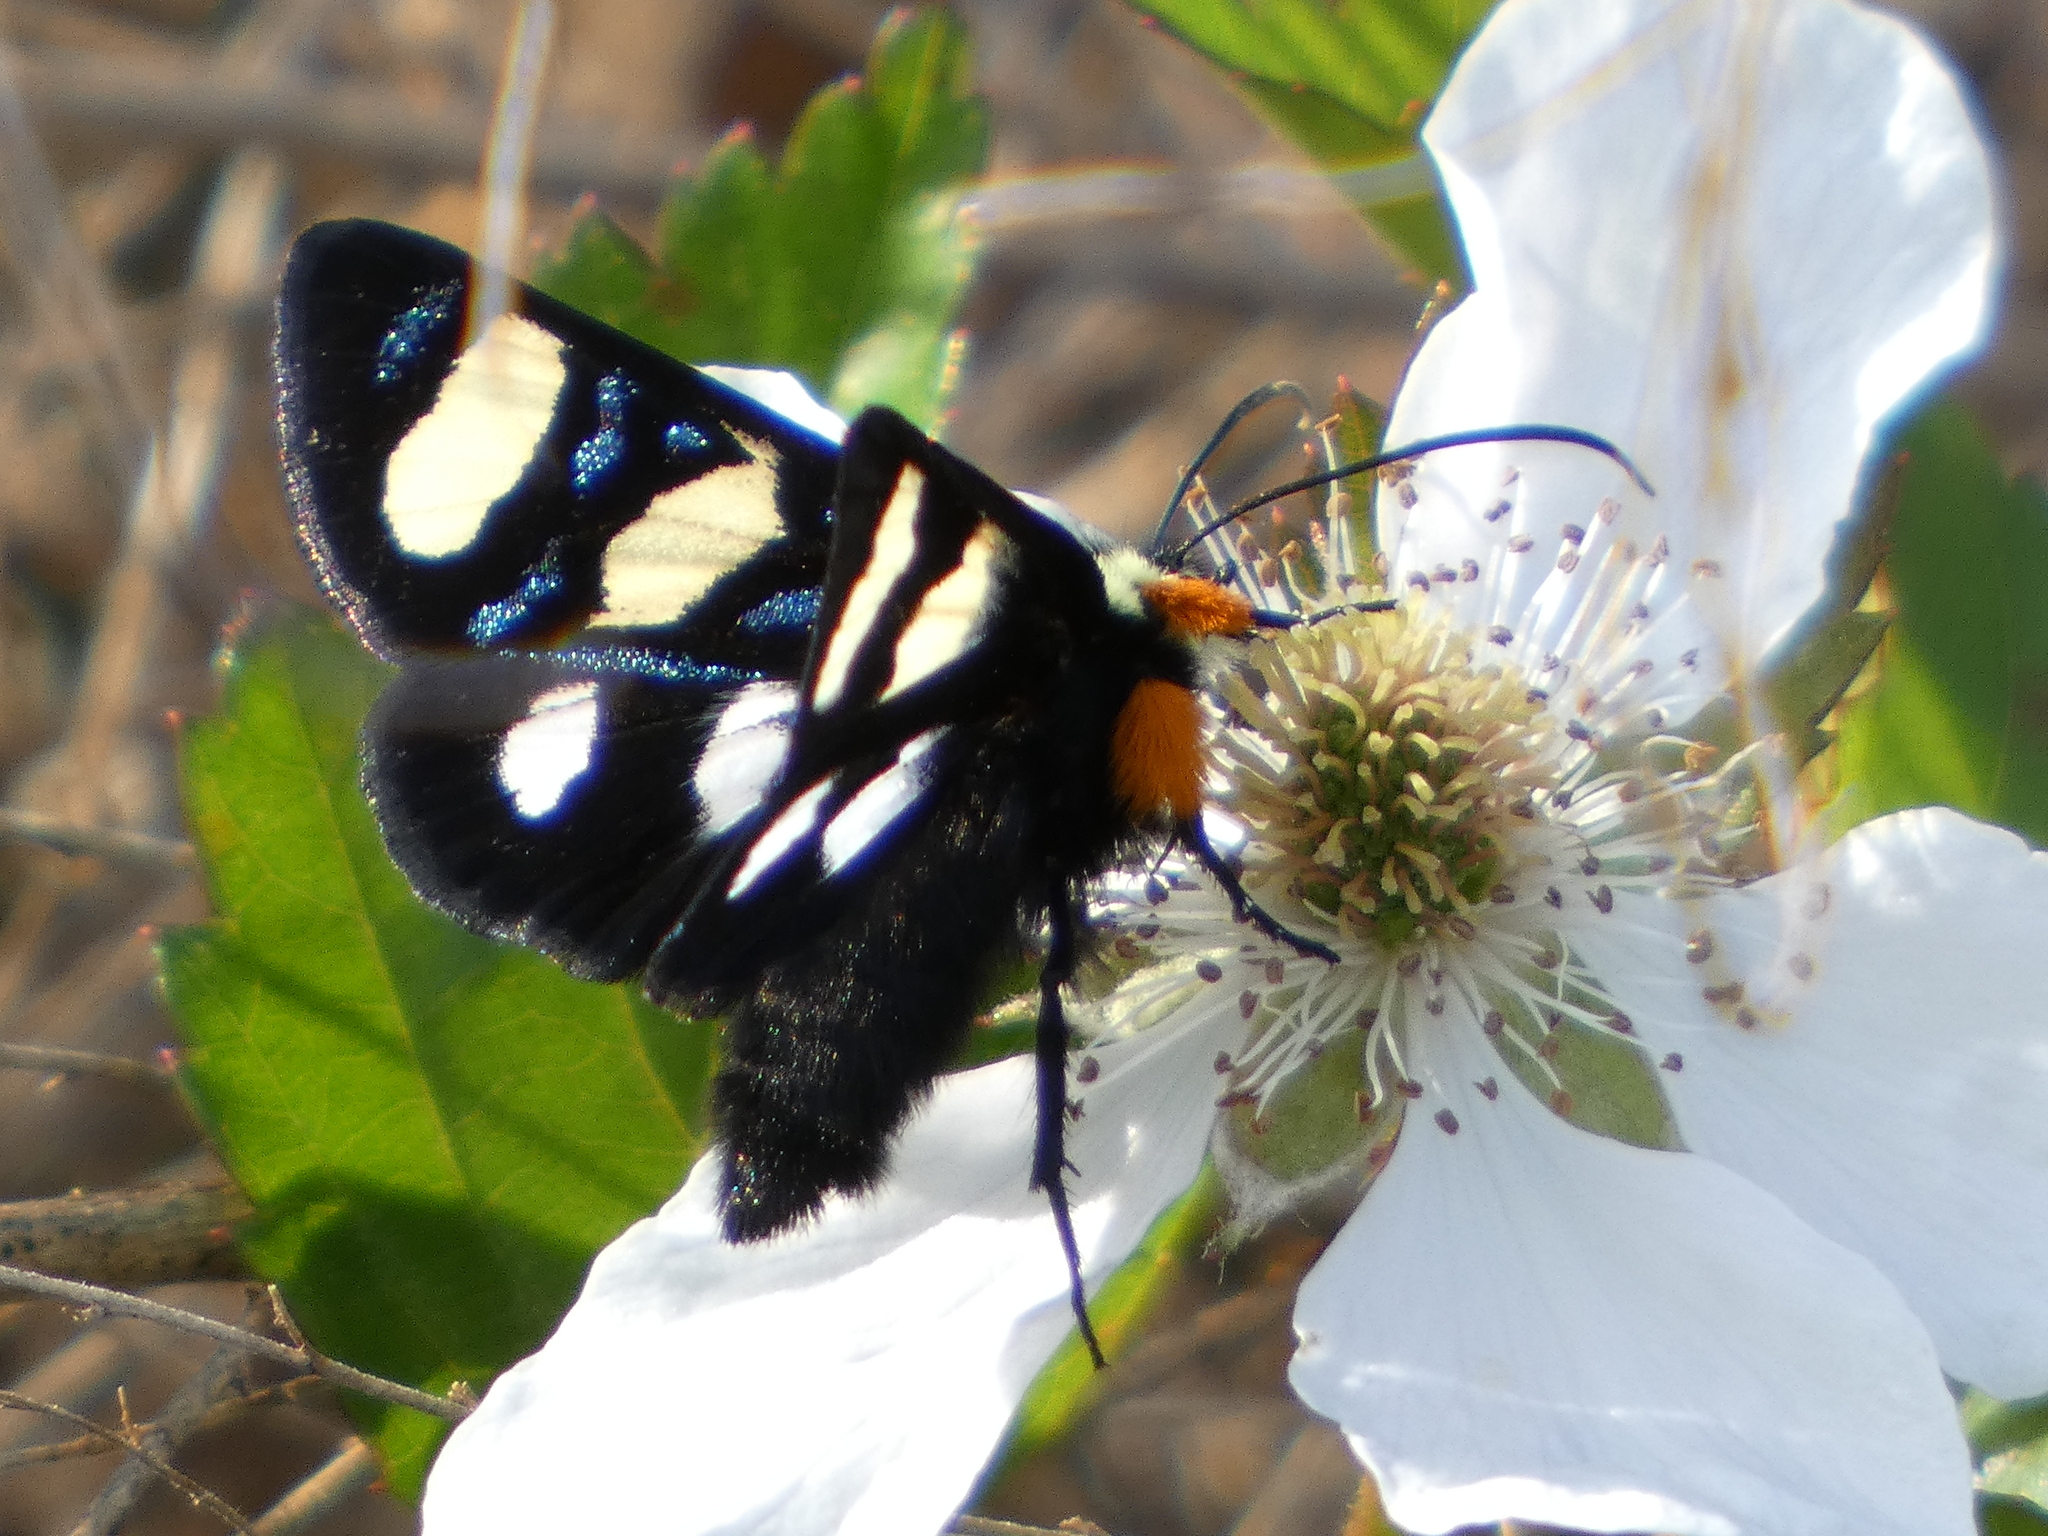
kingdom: Animalia
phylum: Arthropoda
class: Insecta
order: Lepidoptera
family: Noctuidae
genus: Alypia
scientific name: Alypia wittfeldii
